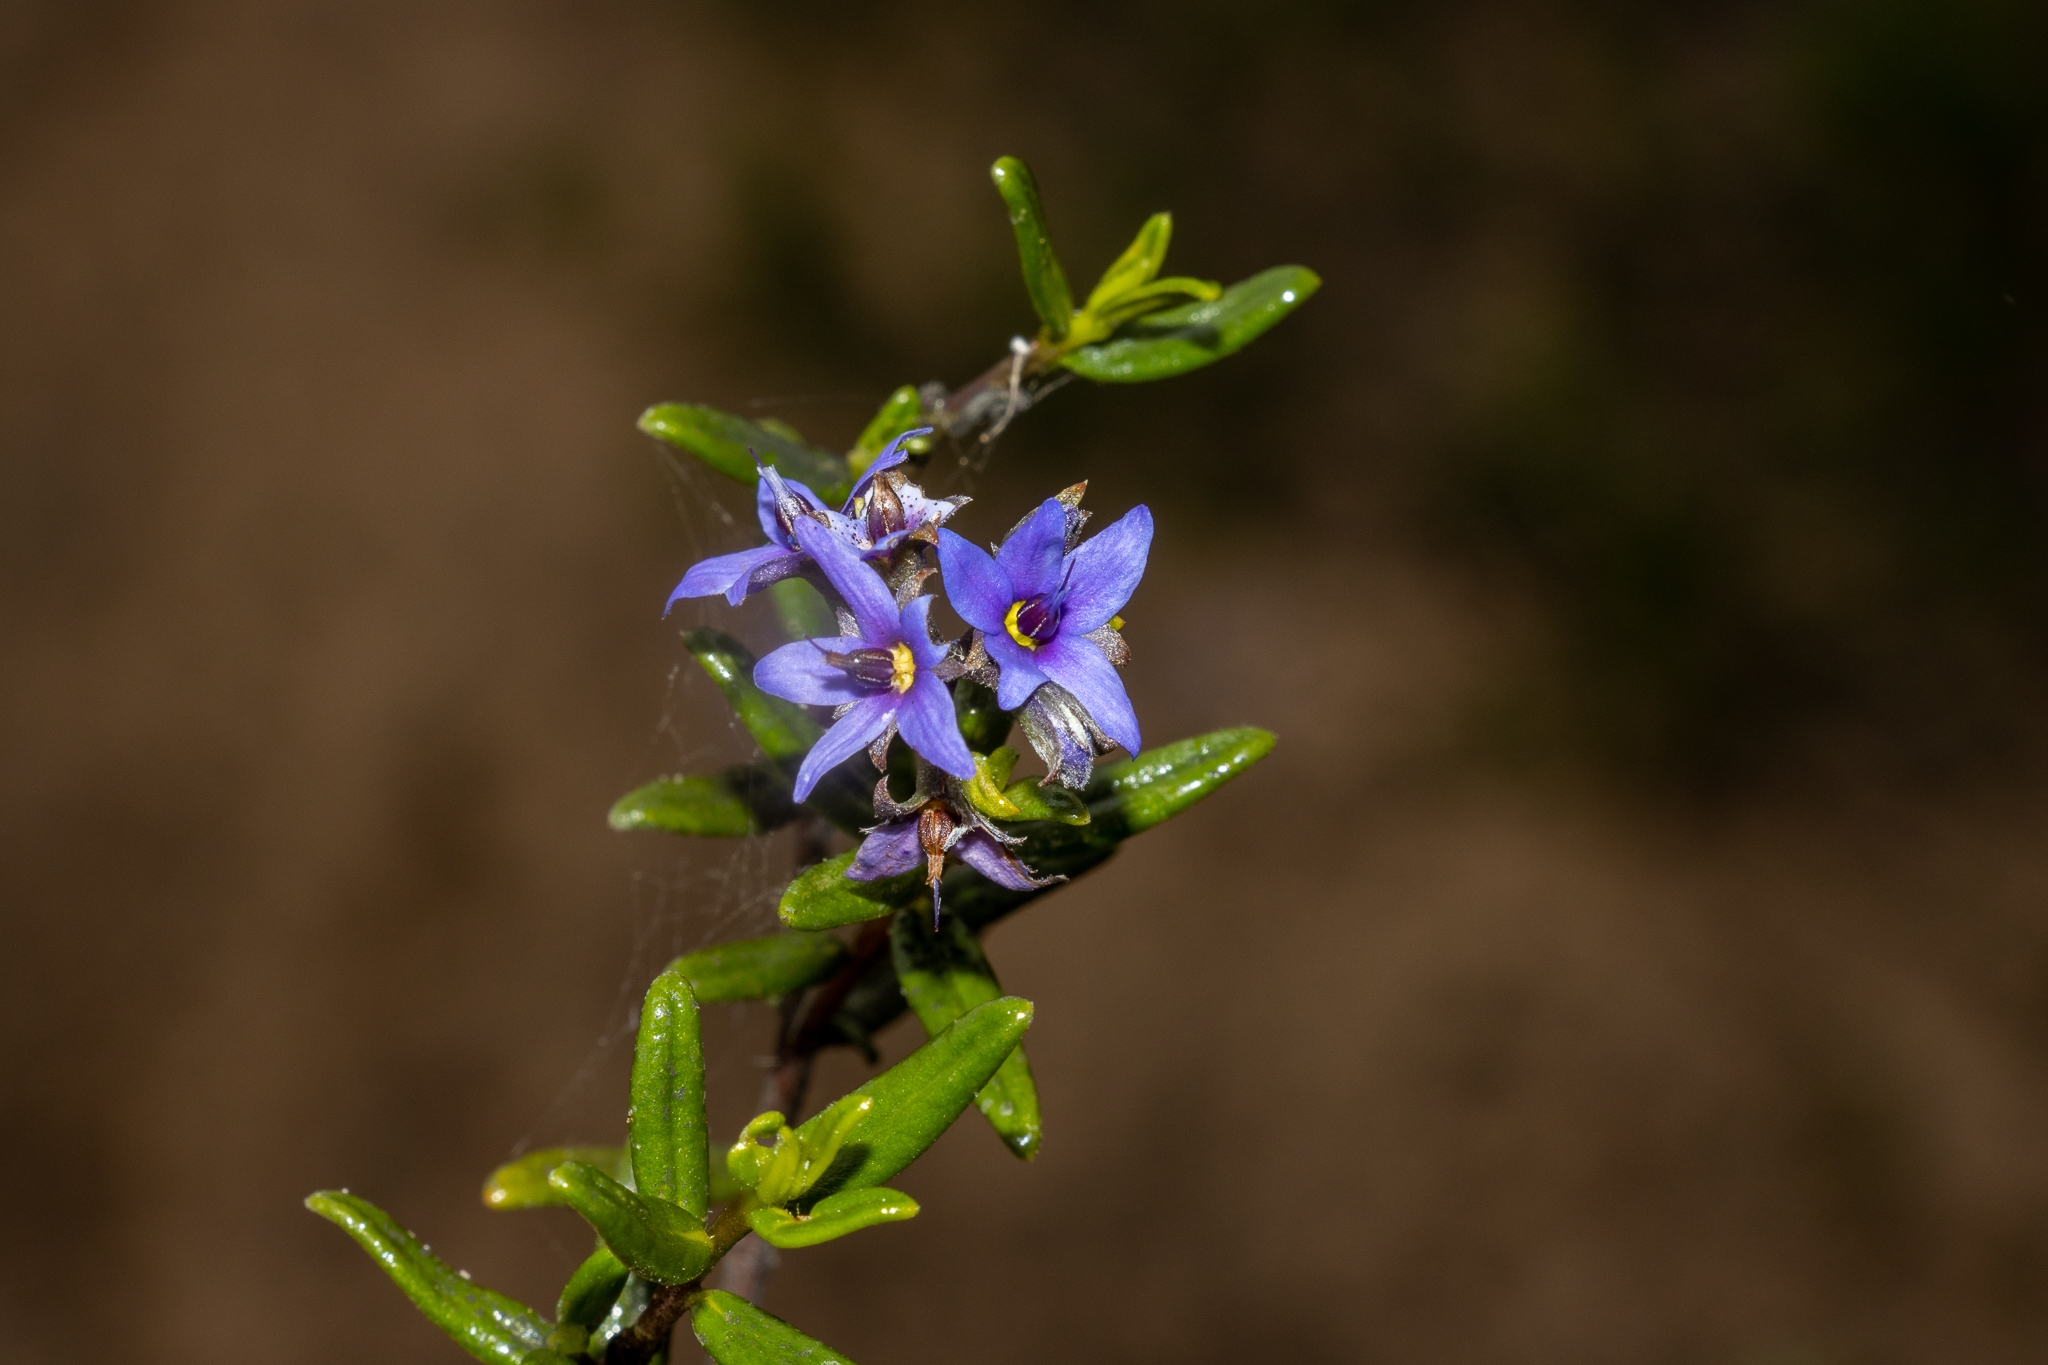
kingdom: Plantae
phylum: Tracheophyta
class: Magnoliopsida
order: Boraginales
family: Ehretiaceae
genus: Halgania
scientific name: Halgania andromedifolia
